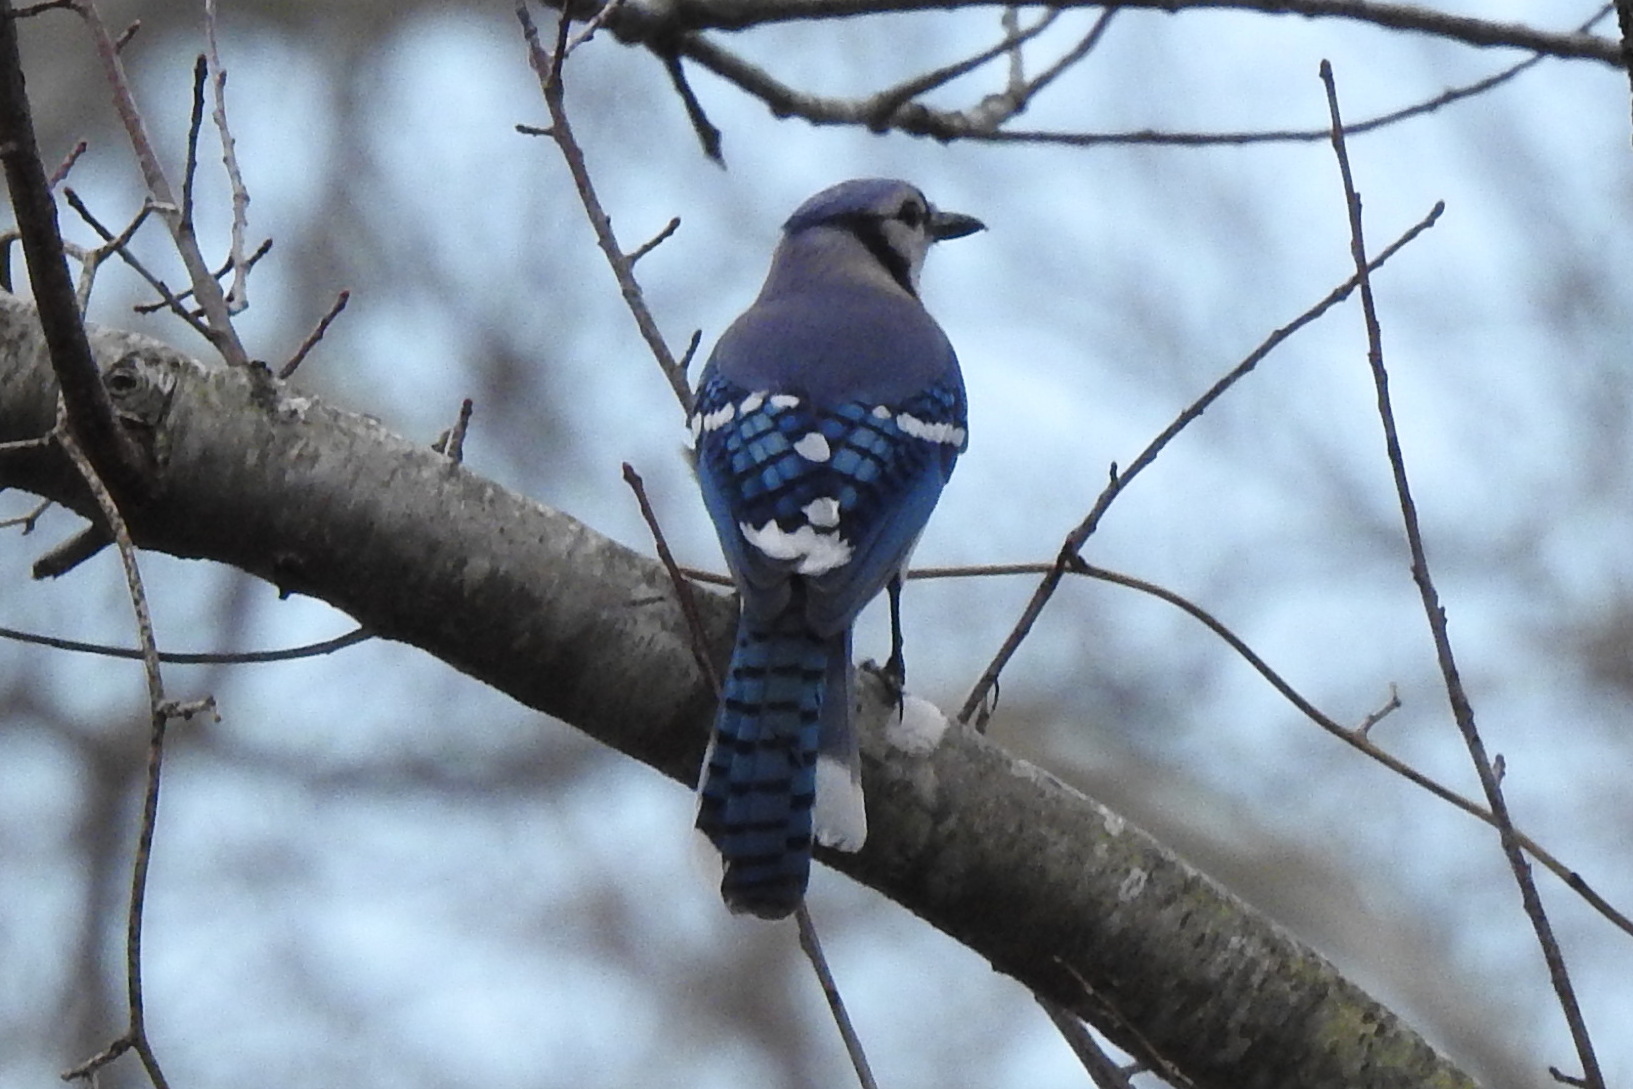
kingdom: Animalia
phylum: Chordata
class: Aves
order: Passeriformes
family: Corvidae
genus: Cyanocitta
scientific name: Cyanocitta cristata
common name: Blue jay
